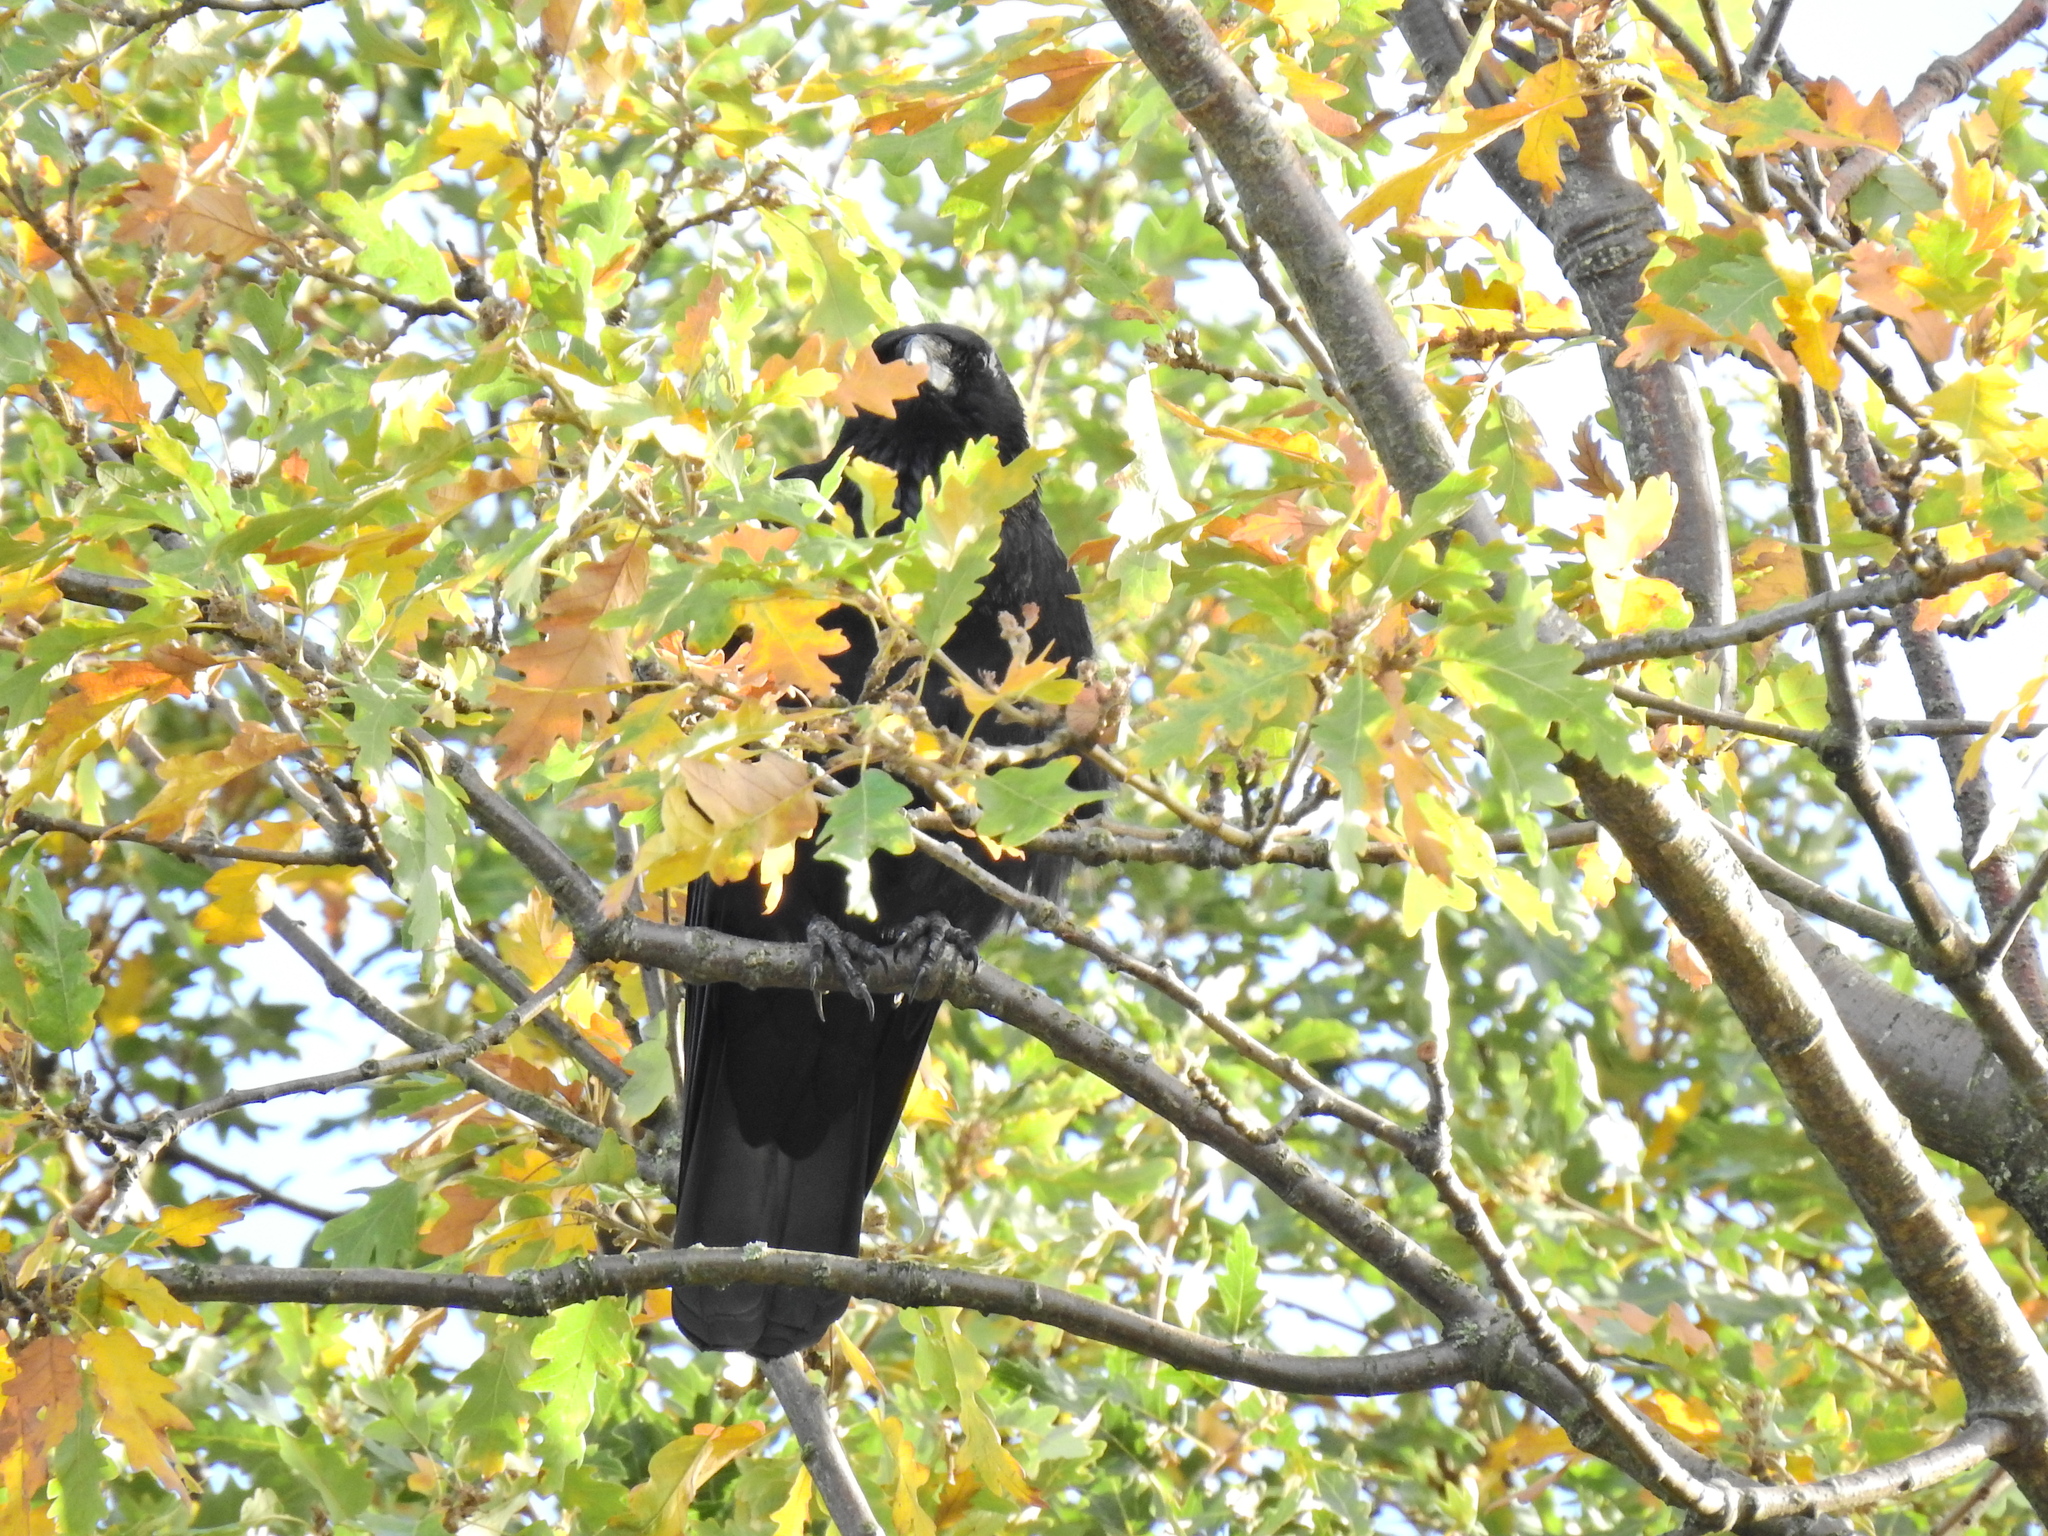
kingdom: Animalia
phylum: Chordata
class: Aves
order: Passeriformes
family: Corvidae
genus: Corvus
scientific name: Corvus corone
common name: Carrion crow
